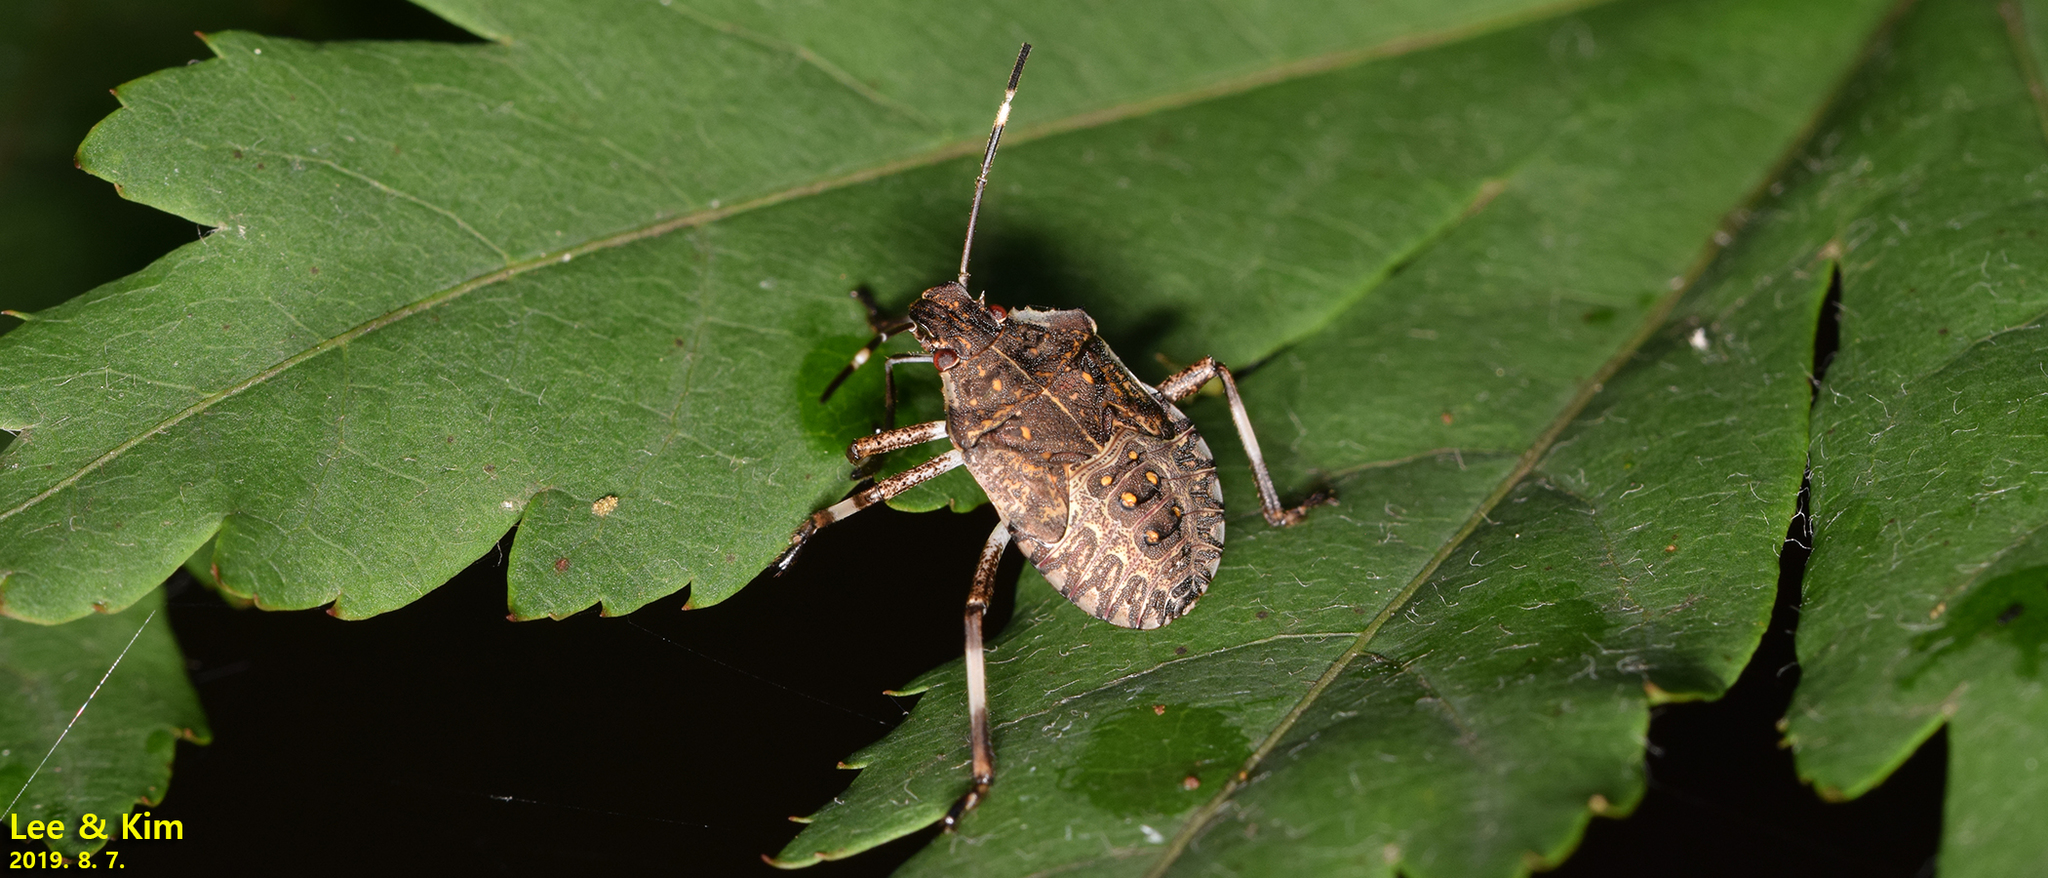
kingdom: Animalia
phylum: Arthropoda
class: Insecta
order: Hemiptera
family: Pentatomidae
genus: Halyomorpha
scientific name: Halyomorpha halys
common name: Brown marmorated stink bug
